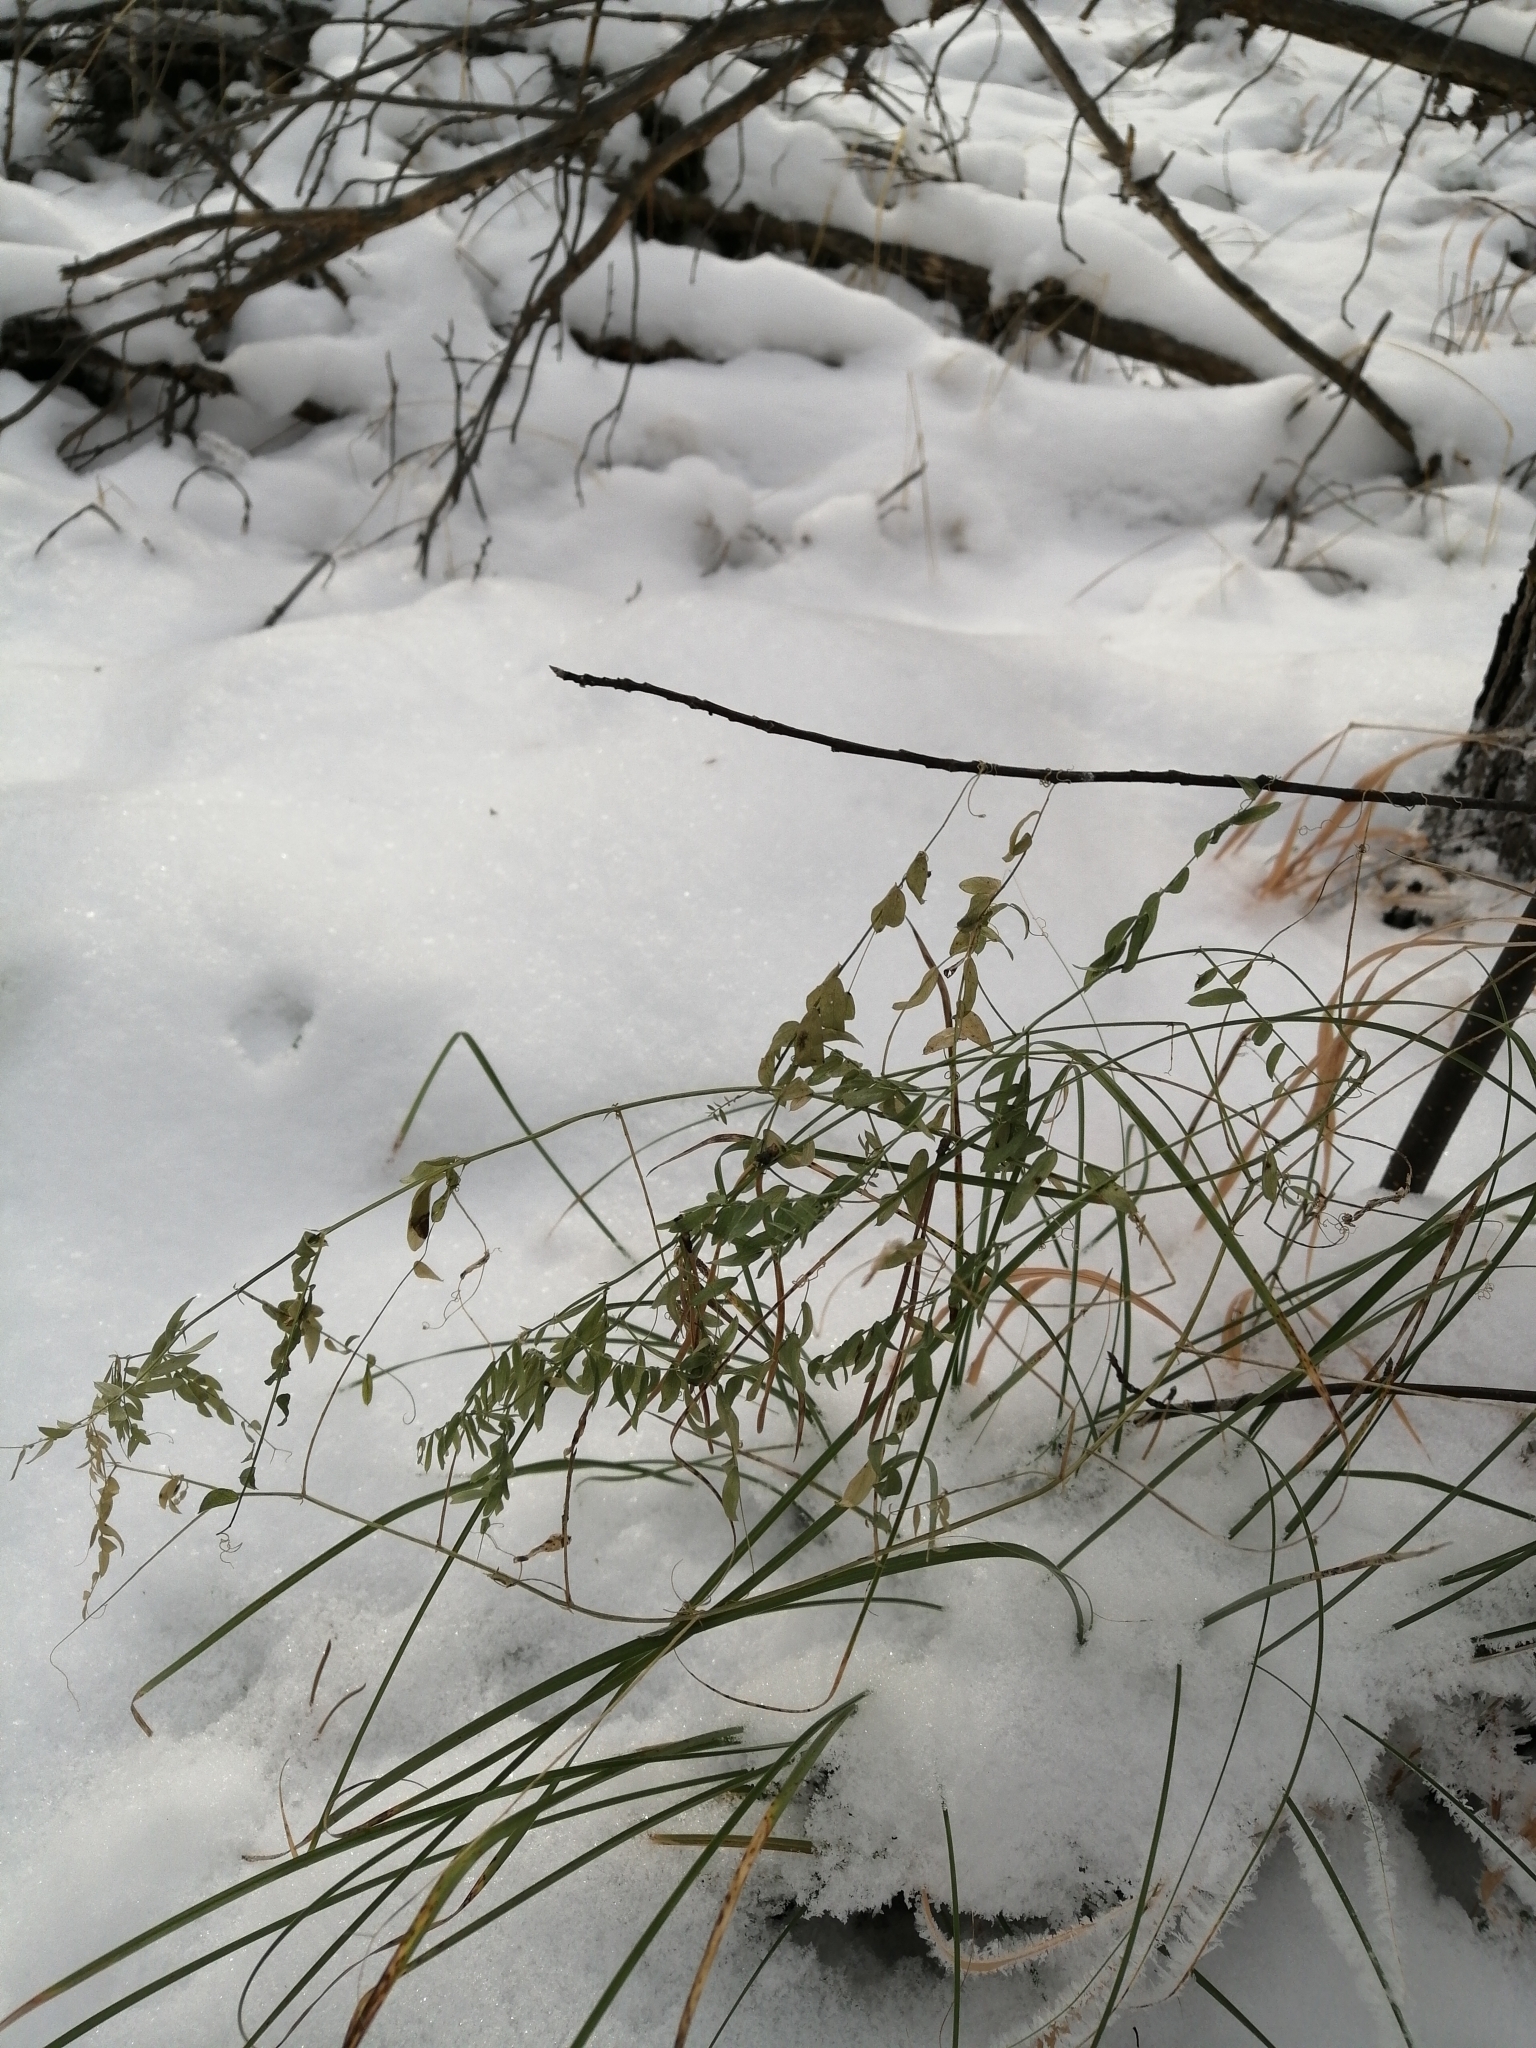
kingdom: Plantae
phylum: Tracheophyta
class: Magnoliopsida
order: Fabales
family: Fabaceae
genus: Vicia
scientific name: Vicia cracca
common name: Bird vetch
